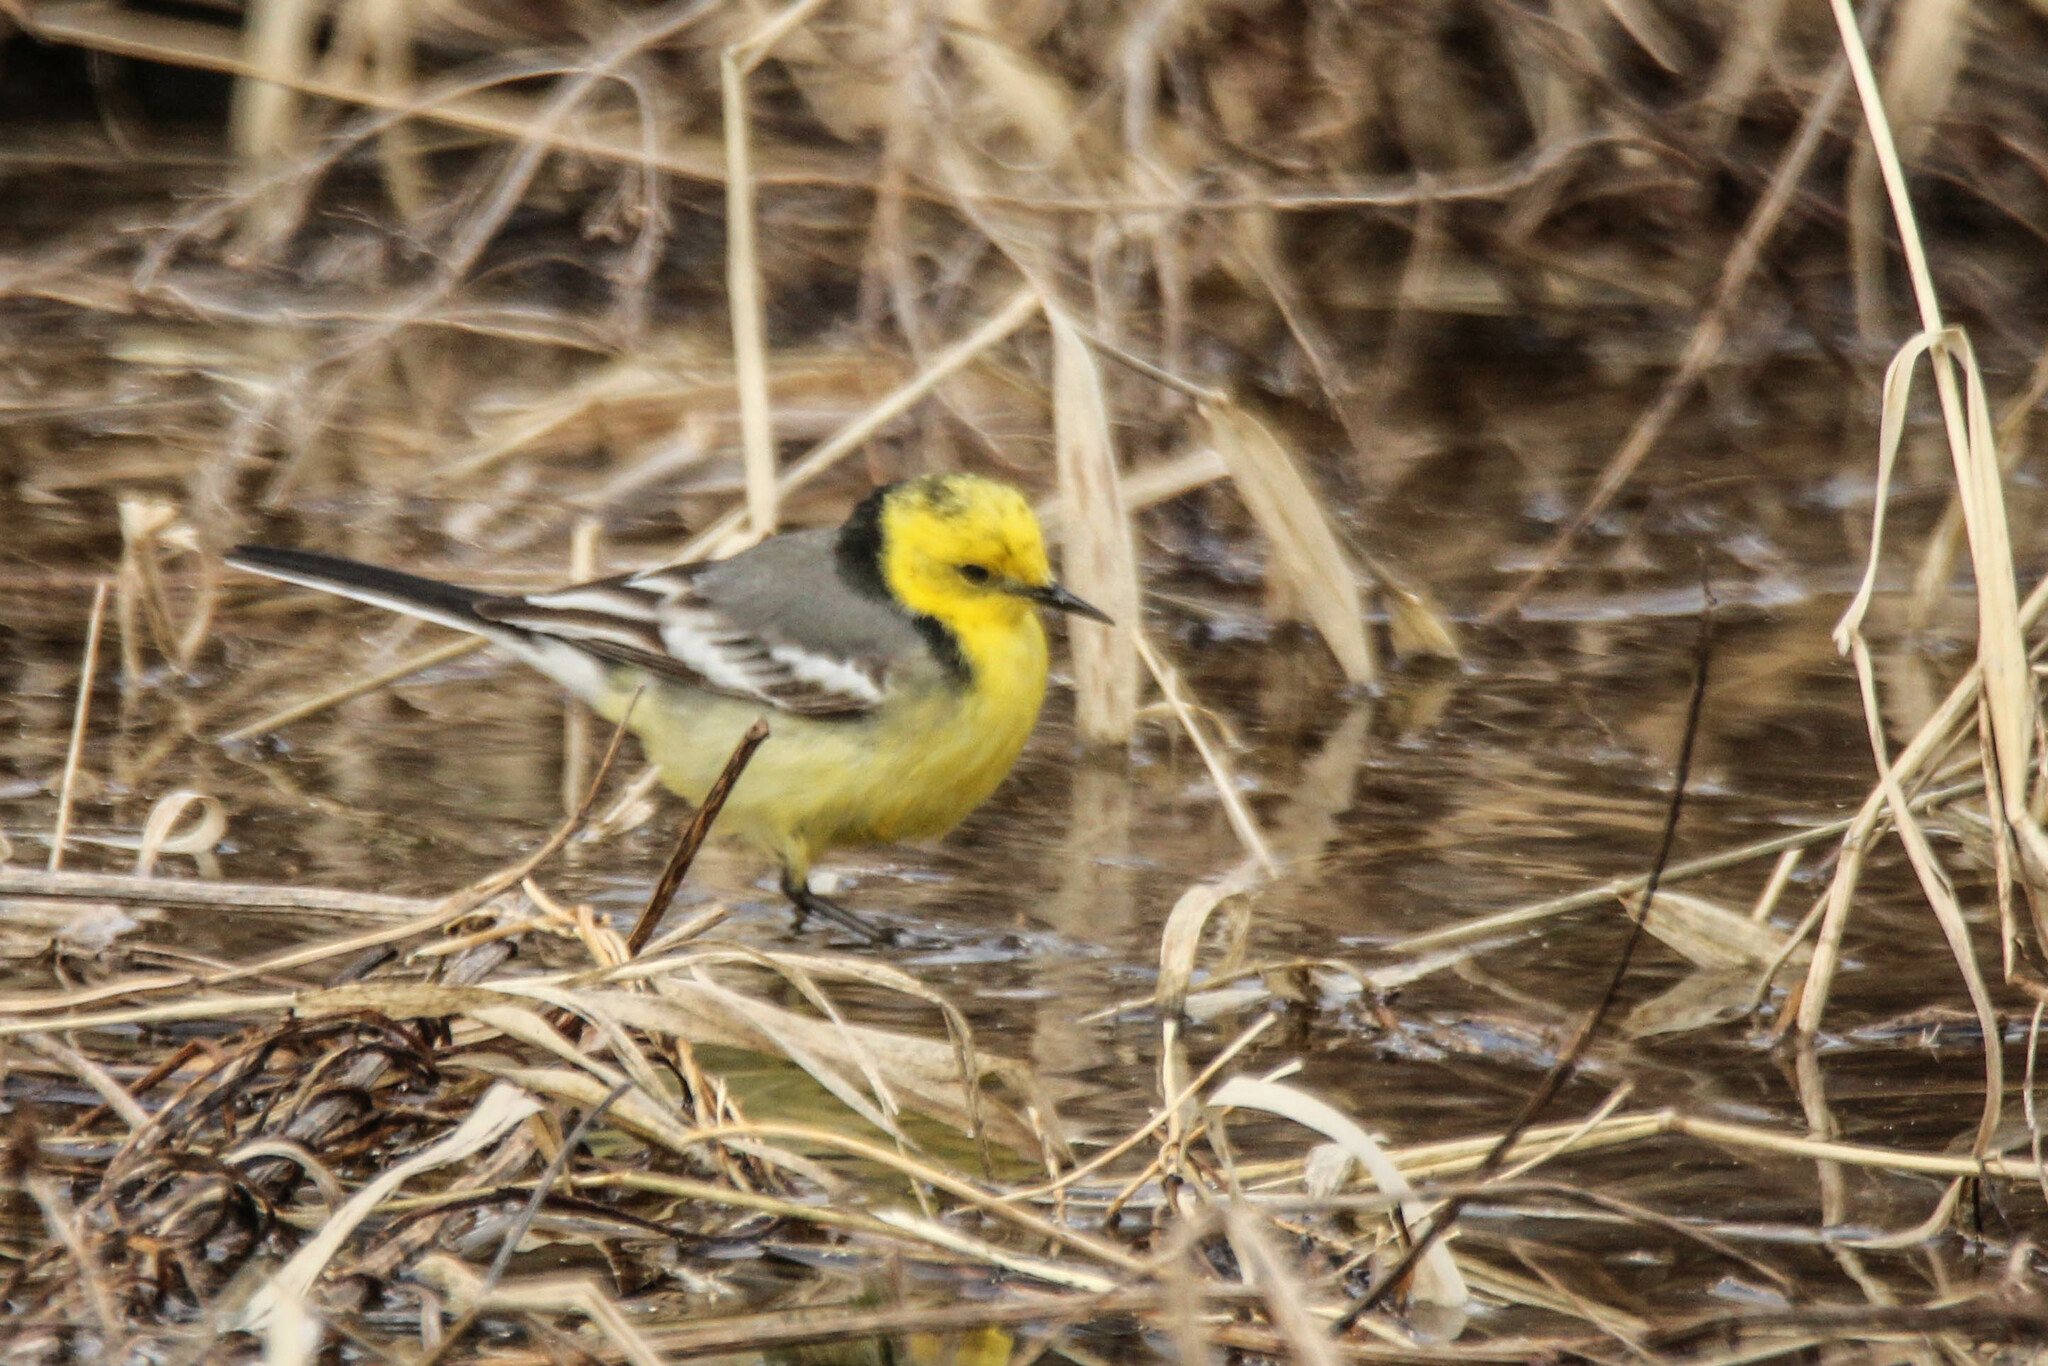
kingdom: Animalia
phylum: Chordata
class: Aves
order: Passeriformes
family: Motacillidae
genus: Motacilla
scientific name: Motacilla citreola
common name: Citrine wagtail
